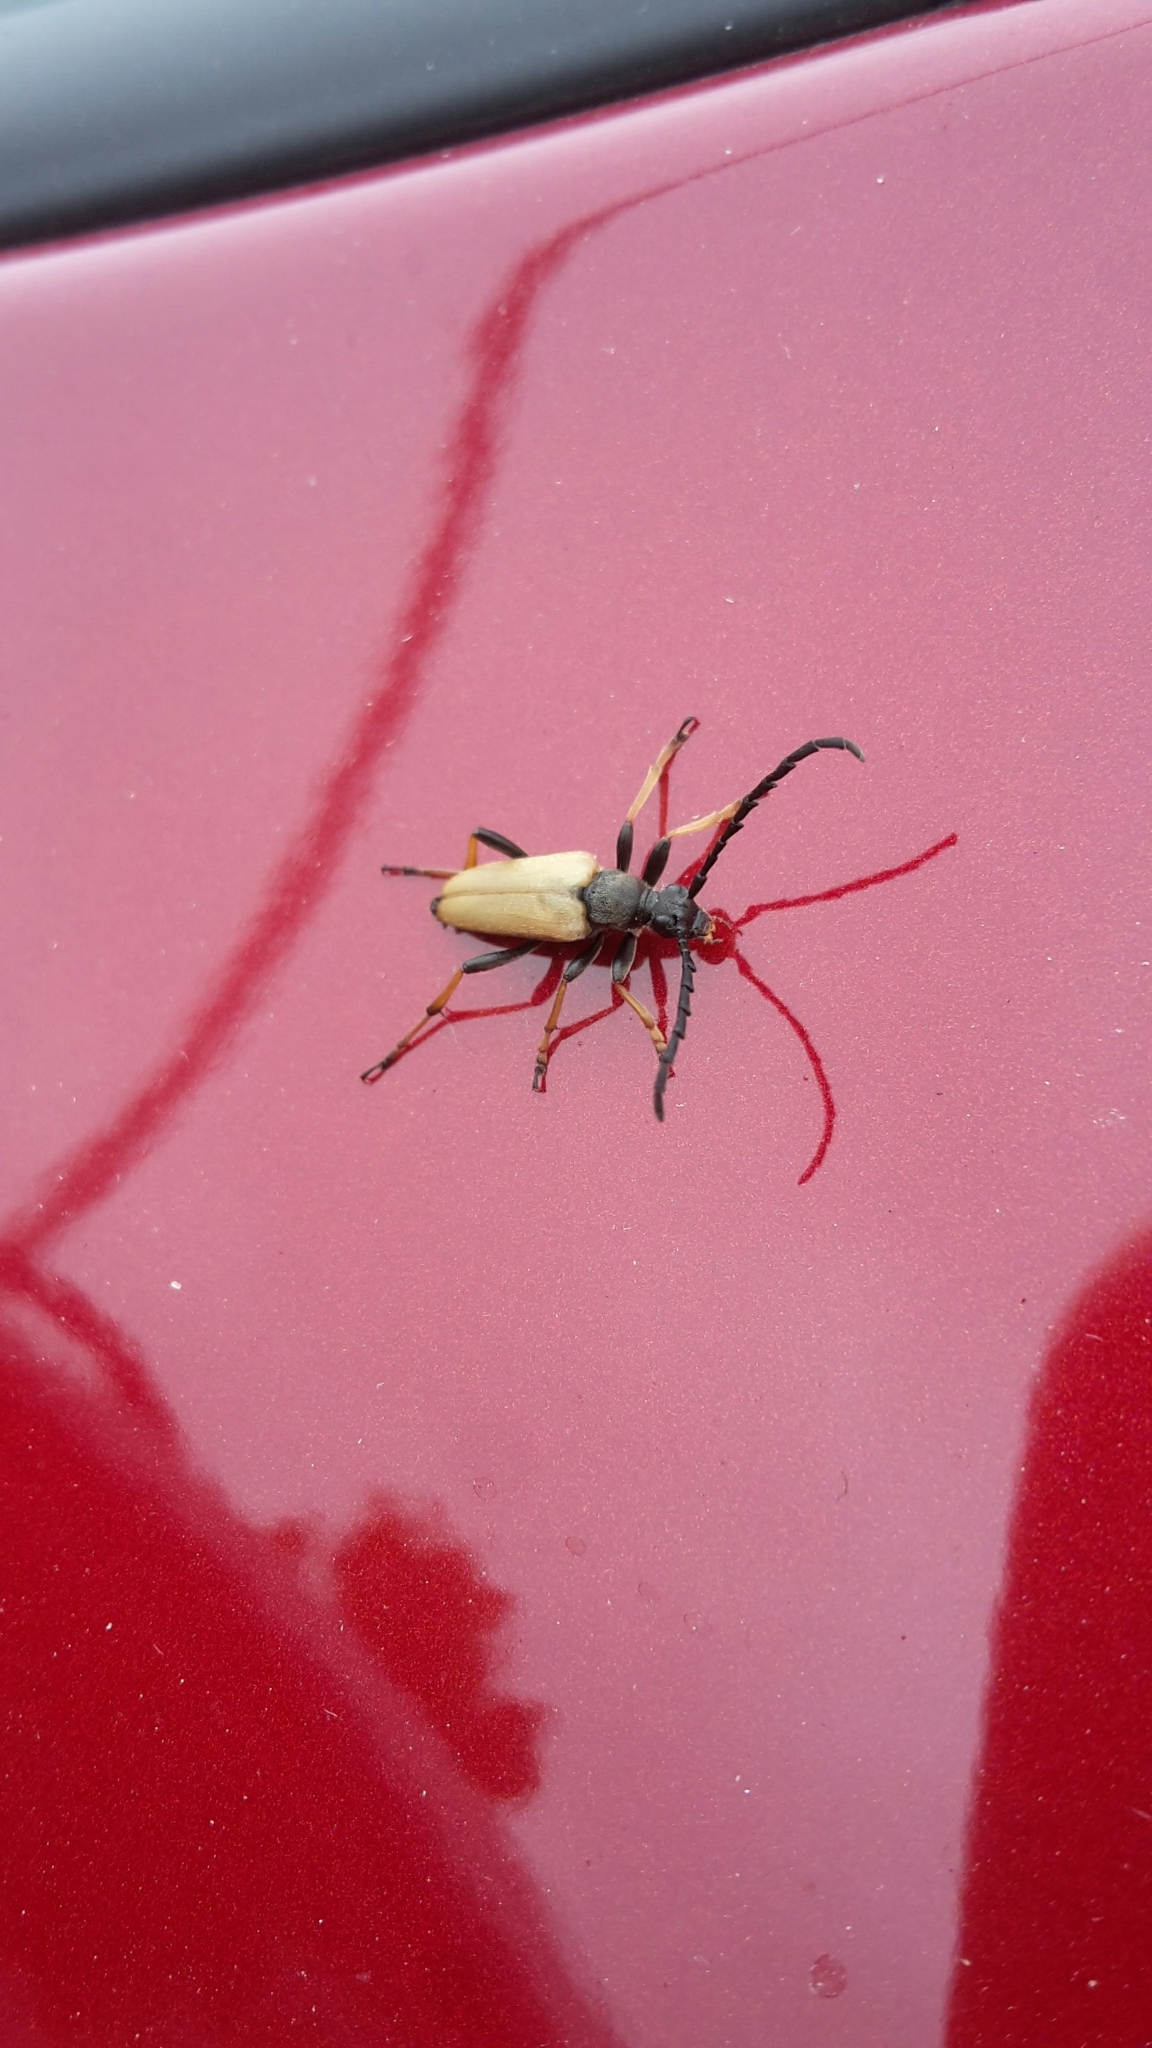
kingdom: Animalia
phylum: Arthropoda
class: Insecta
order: Coleoptera
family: Cerambycidae
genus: Stictoleptura
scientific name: Stictoleptura rubra
